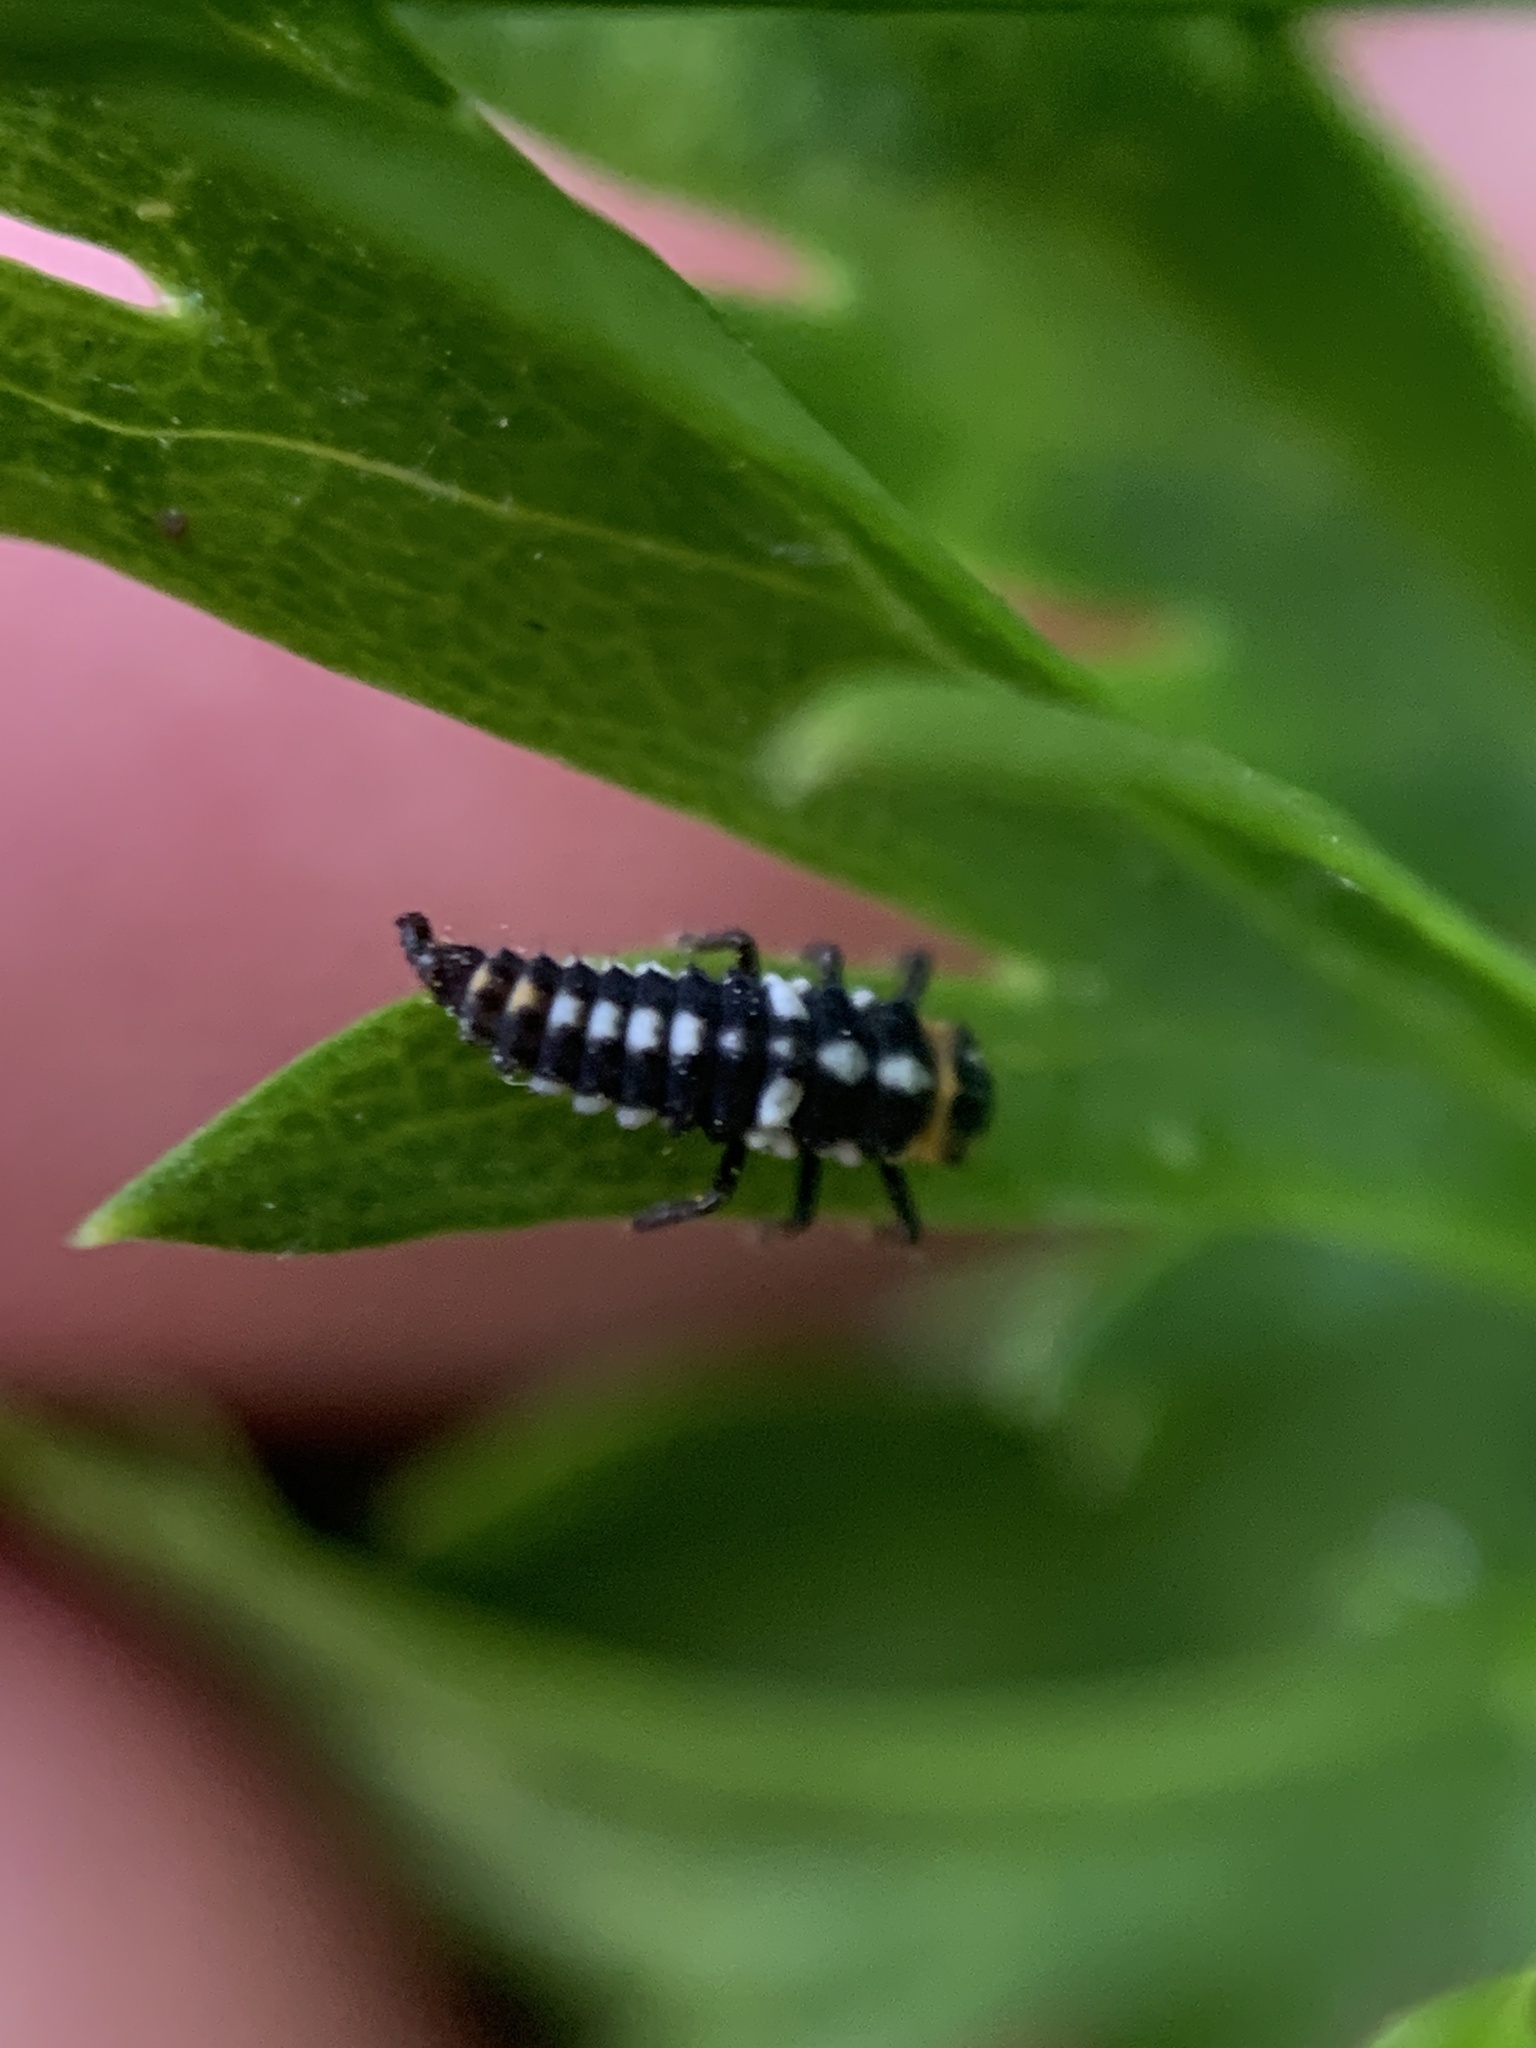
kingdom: Animalia
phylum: Arthropoda
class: Insecta
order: Coleoptera
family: Coccinellidae
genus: Eriopis
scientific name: Eriopis connexa
